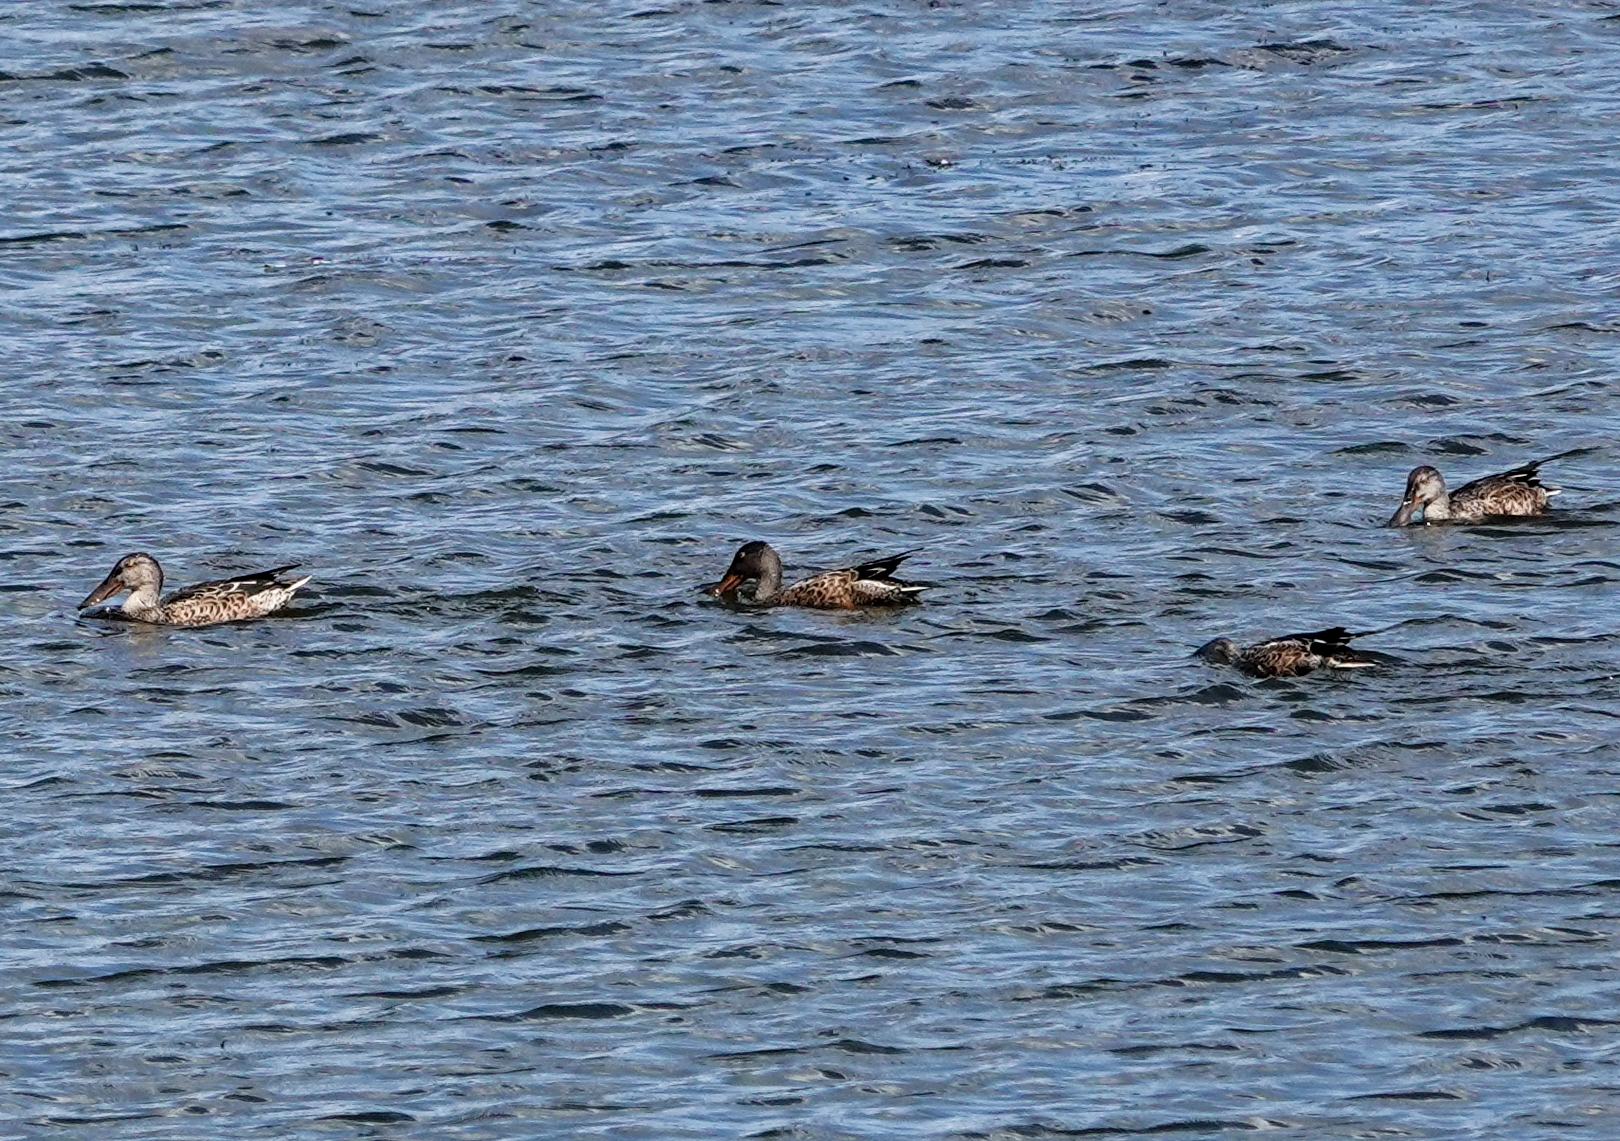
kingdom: Animalia
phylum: Chordata
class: Aves
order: Anseriformes
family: Anatidae
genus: Spatula
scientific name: Spatula clypeata
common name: Northern shoveler
